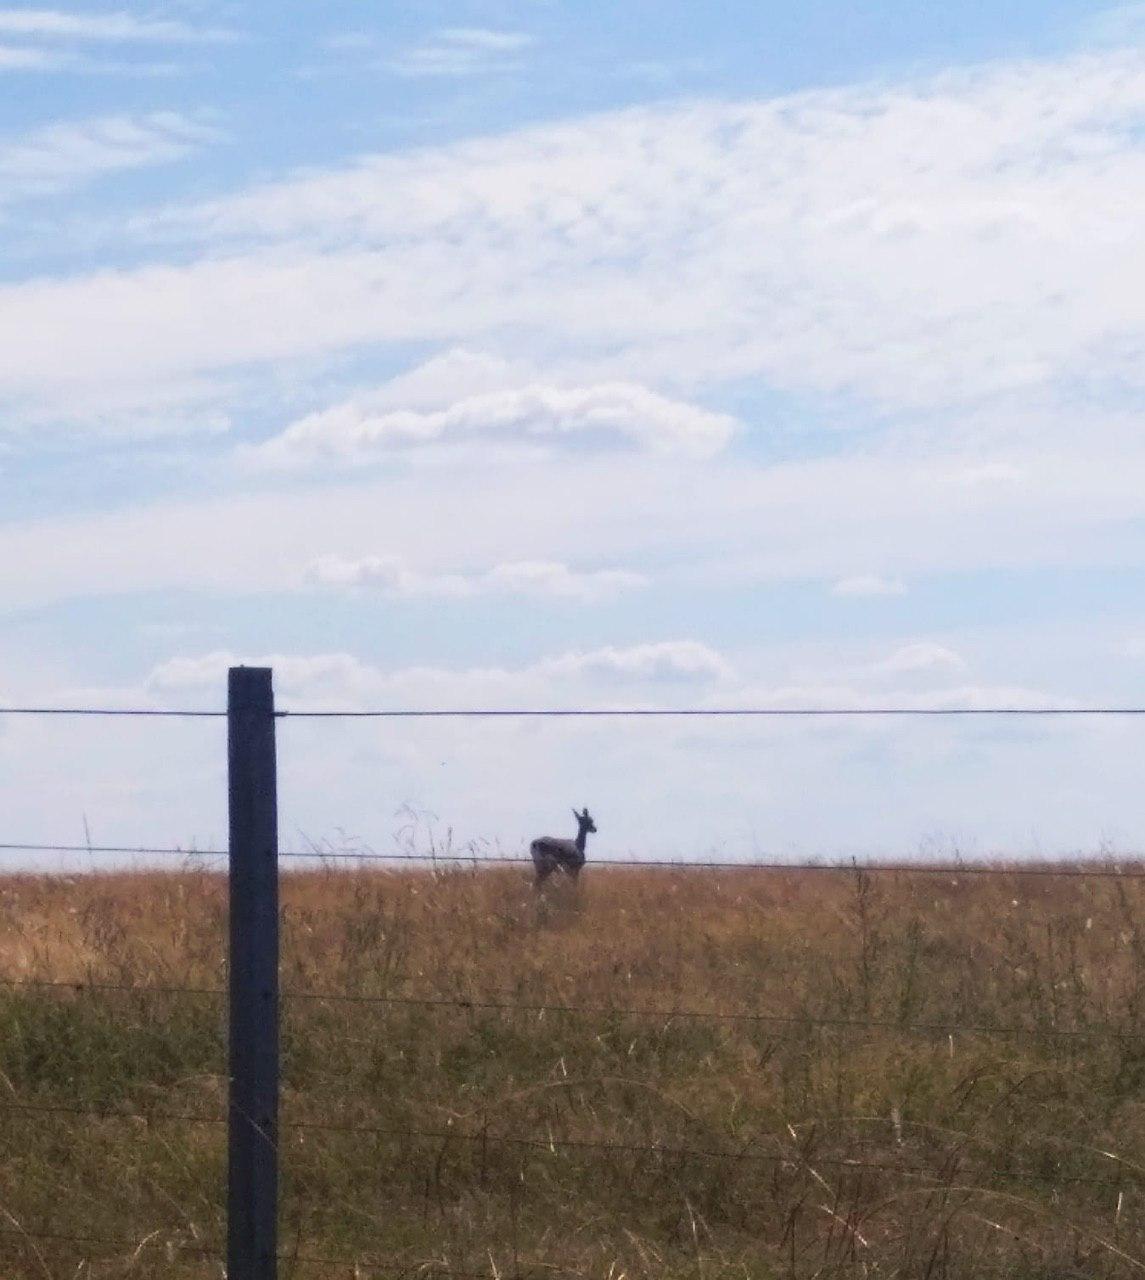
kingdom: Animalia
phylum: Chordata
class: Mammalia
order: Artiodactyla
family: Cervidae
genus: Ozotoceros
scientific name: Ozotoceros bezoarticus
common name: Pampas deer
